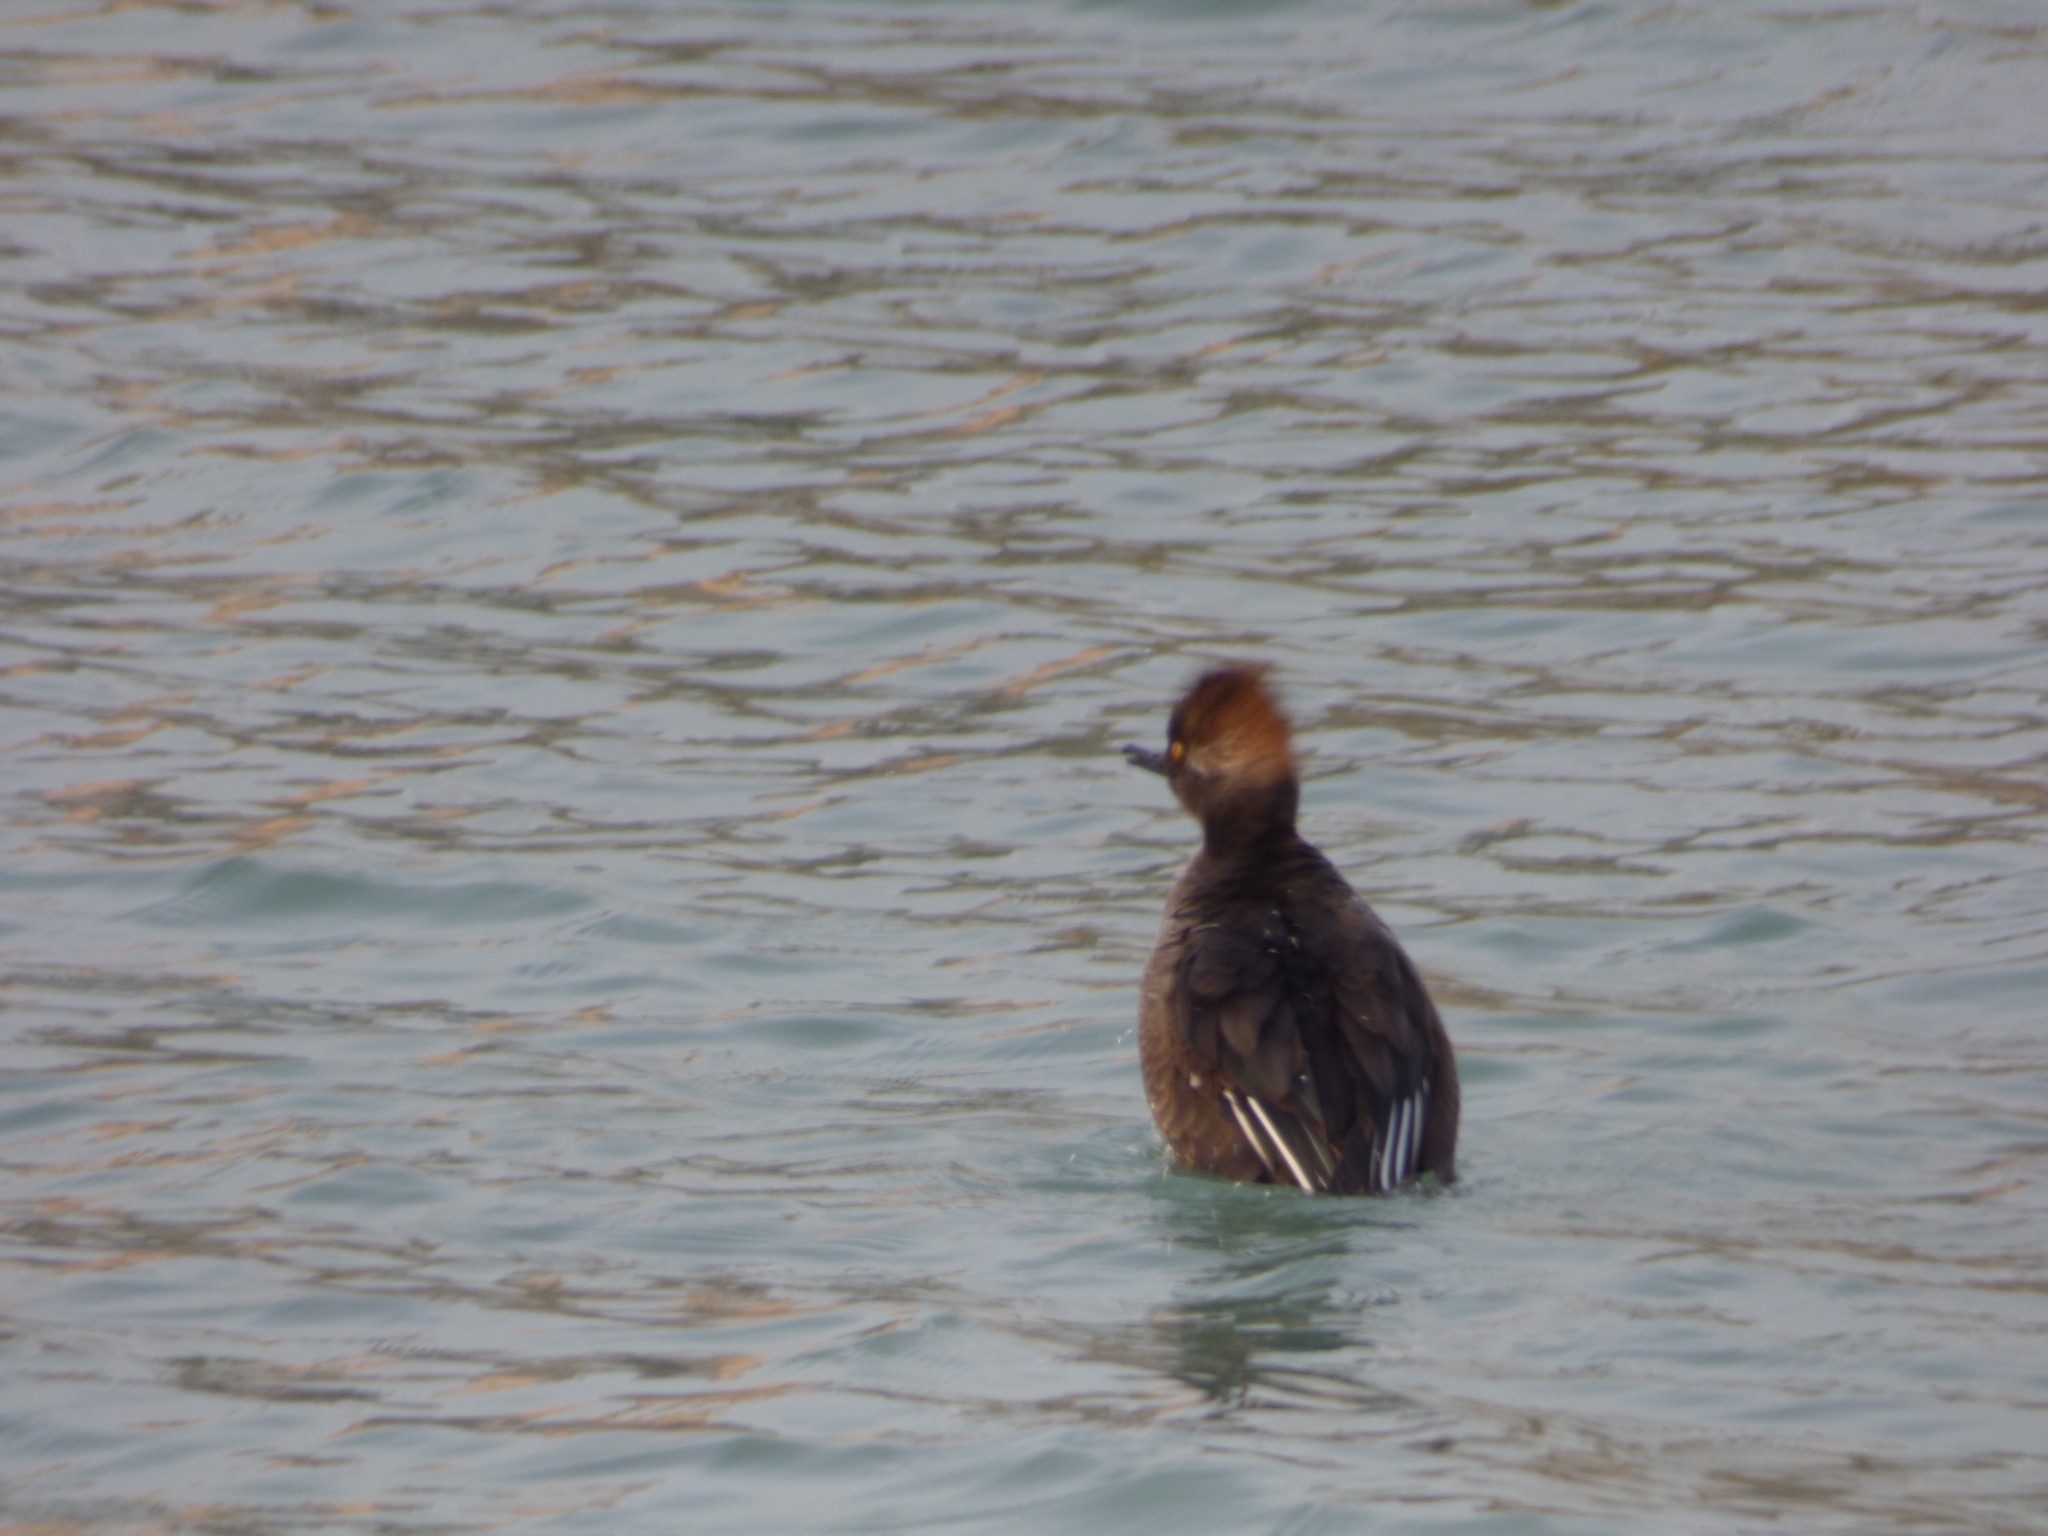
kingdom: Animalia
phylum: Chordata
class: Aves
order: Anseriformes
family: Anatidae
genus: Lophodytes
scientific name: Lophodytes cucullatus
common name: Hooded merganser
